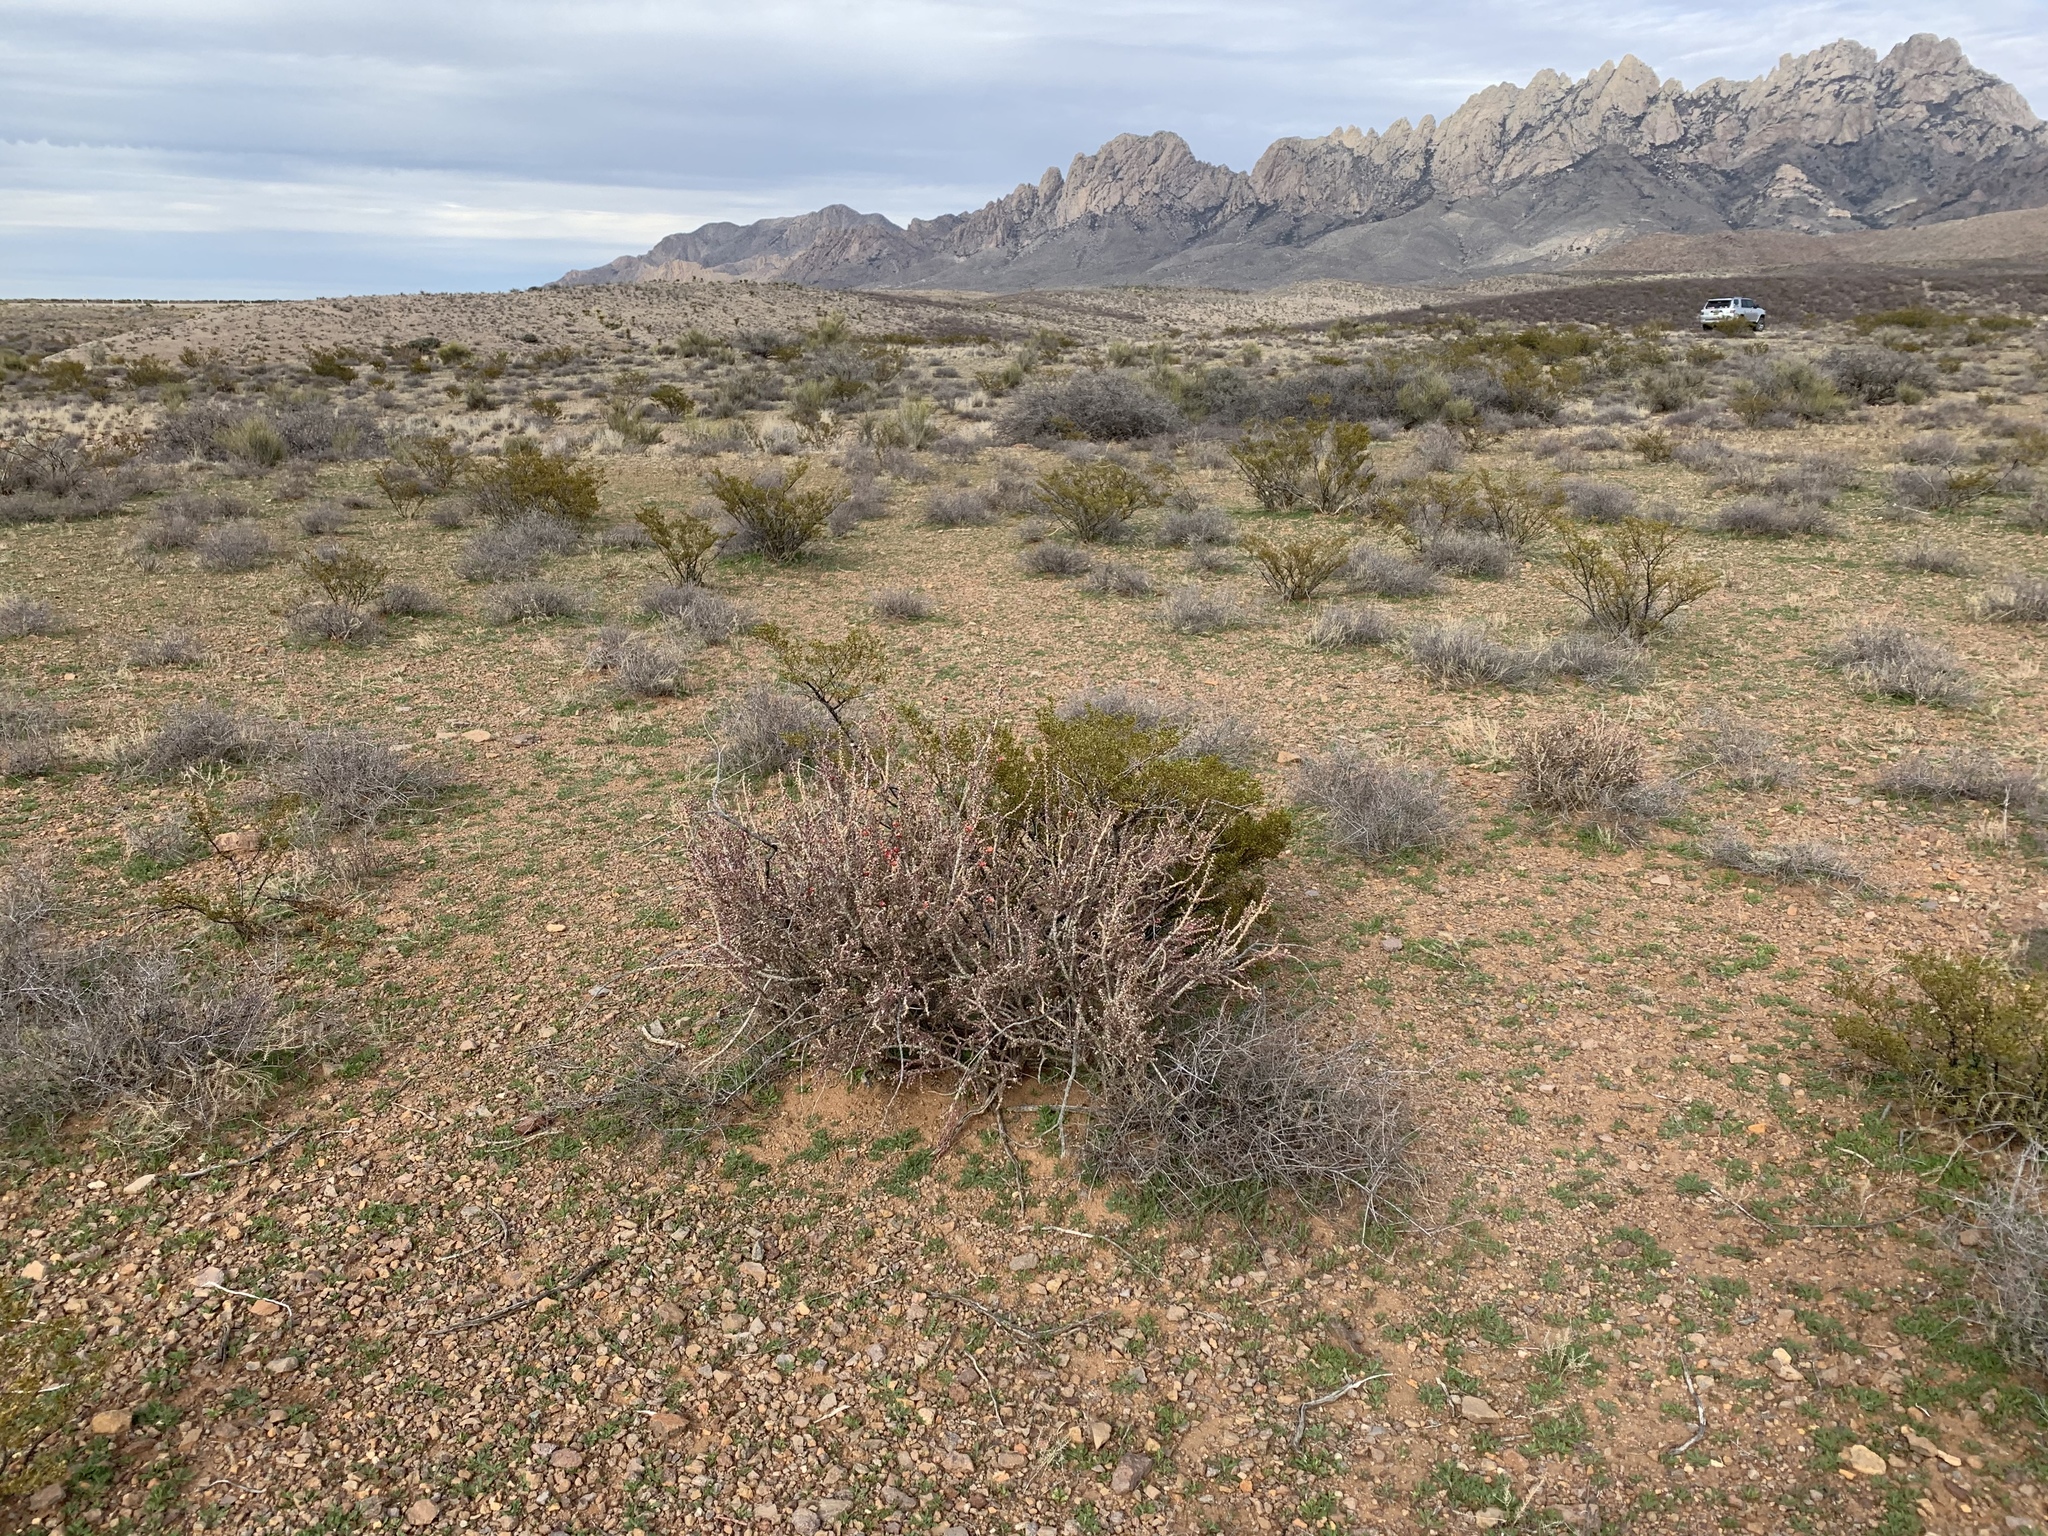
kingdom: Plantae
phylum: Tracheophyta
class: Magnoliopsida
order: Caryophyllales
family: Cactaceae
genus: Cylindropuntia
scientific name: Cylindropuntia leptocaulis
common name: Christmas cactus
